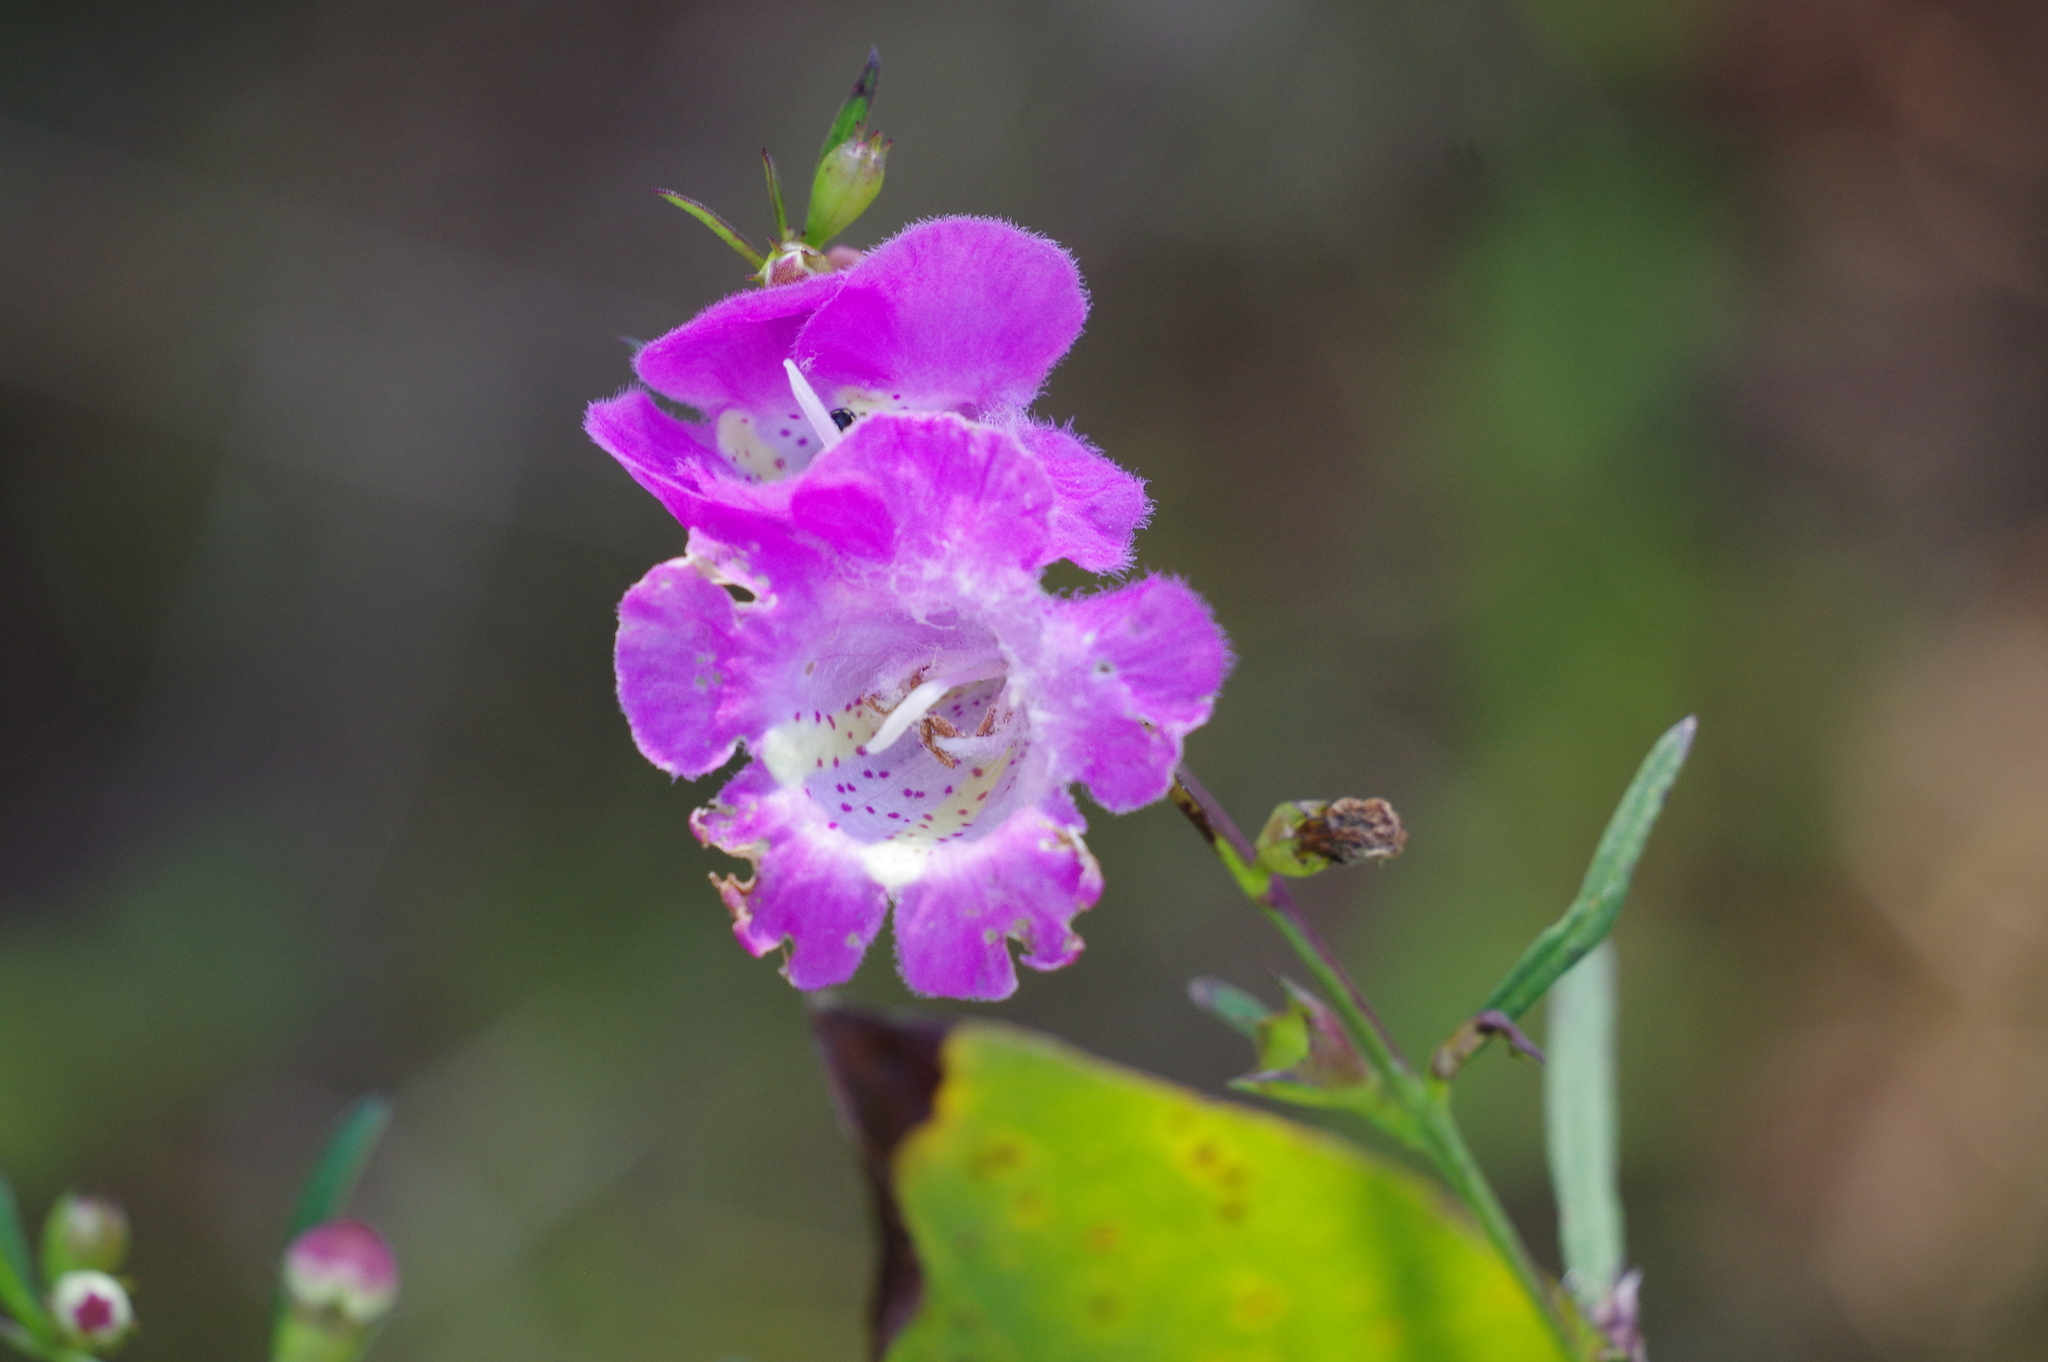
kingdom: Plantae
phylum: Tracheophyta
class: Magnoliopsida
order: Lamiales
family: Orobanchaceae
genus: Agalinis
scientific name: Agalinis purpurea
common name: Purple false foxglove
